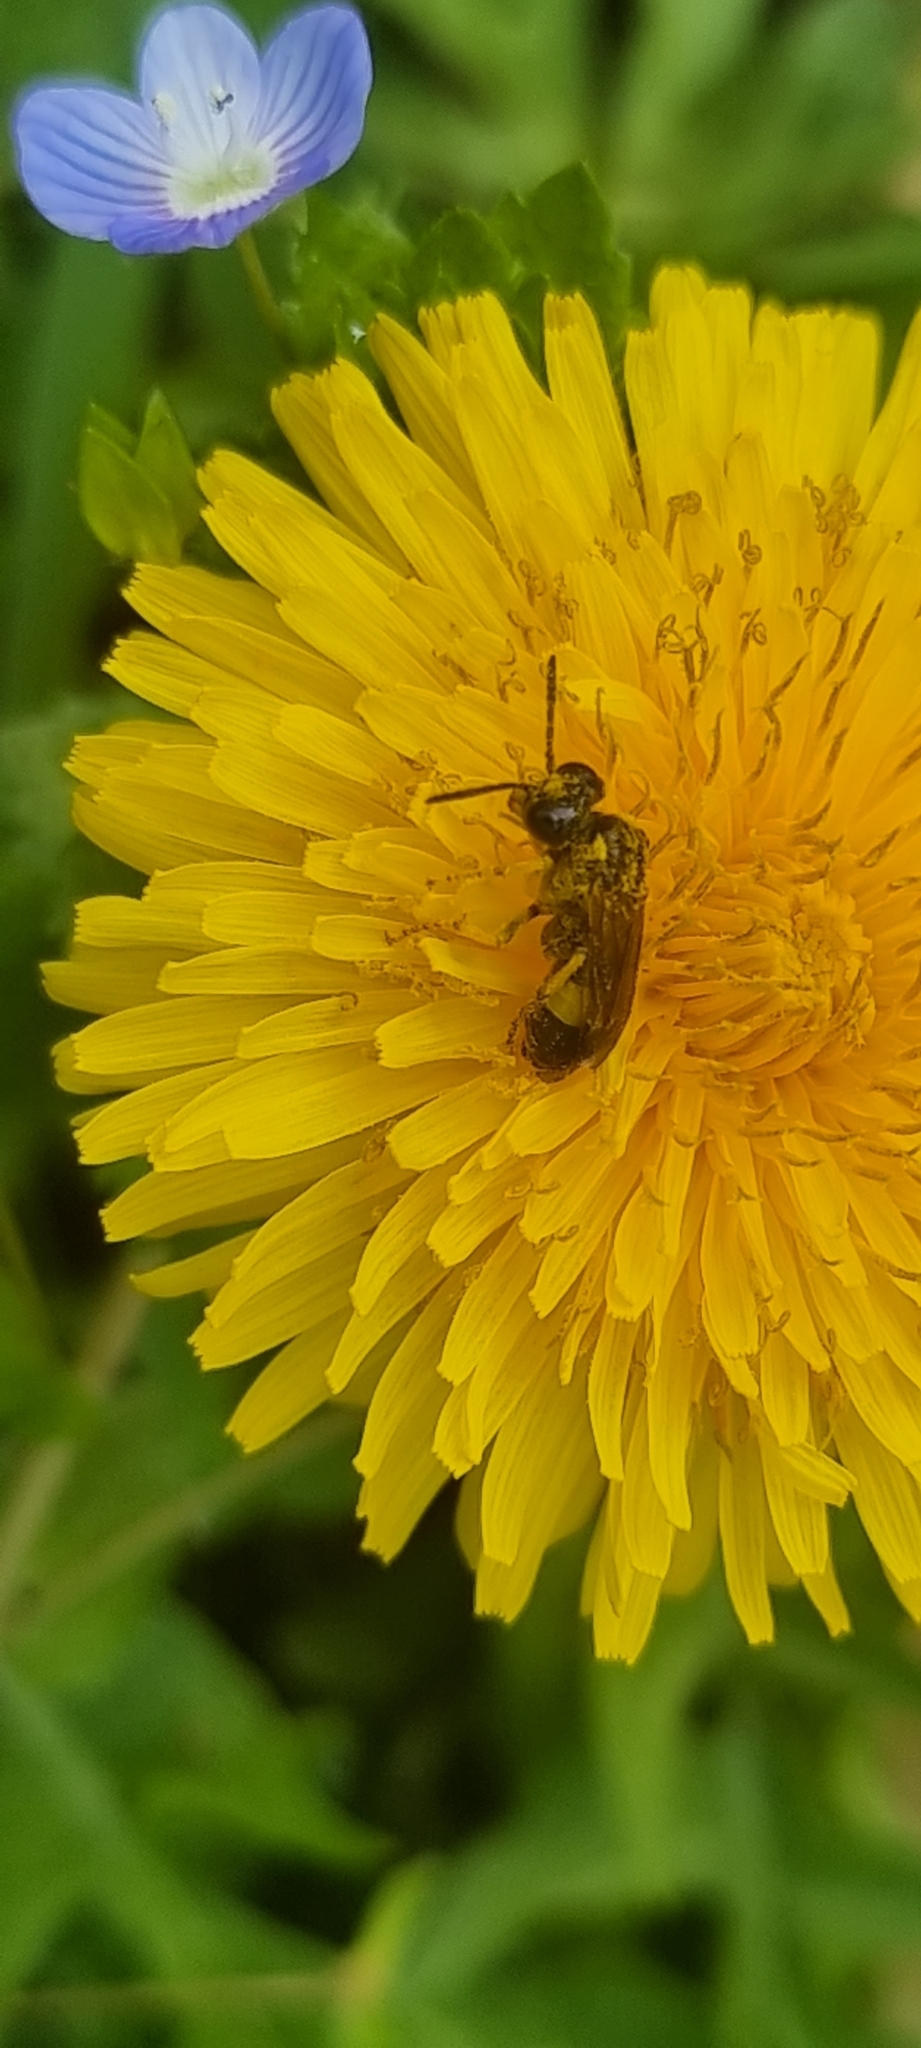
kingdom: Animalia
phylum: Arthropoda
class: Insecta
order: Hymenoptera
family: Tenthredinidae
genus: Paratenthredo
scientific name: Paratenthredo frauenfeldii
